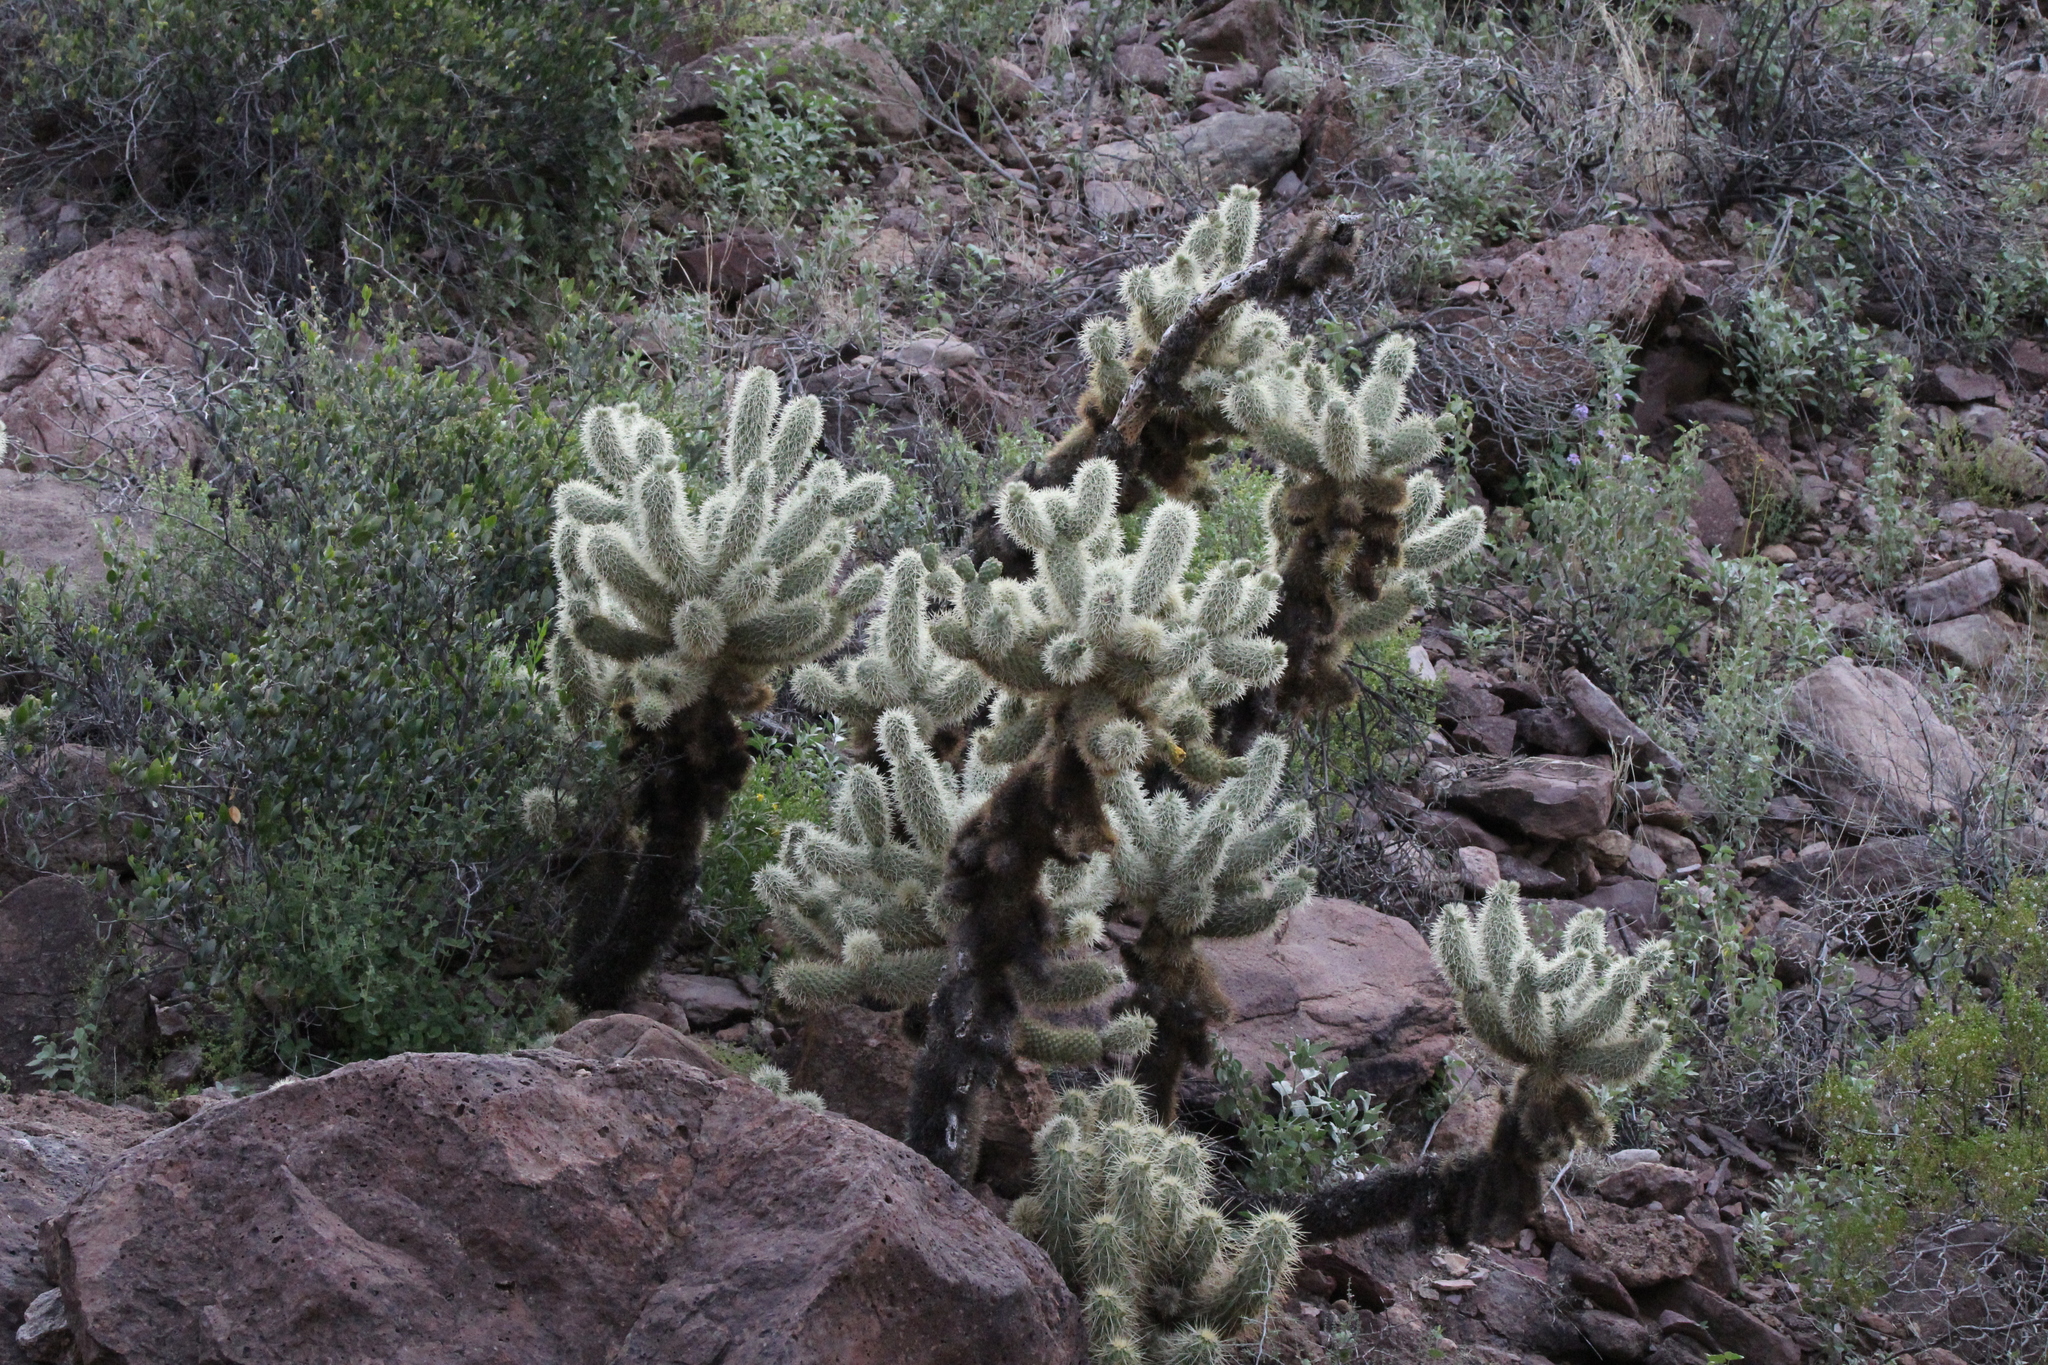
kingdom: Plantae
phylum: Tracheophyta
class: Magnoliopsida
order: Caryophyllales
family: Cactaceae
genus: Cylindropuntia
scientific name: Cylindropuntia fosbergii
